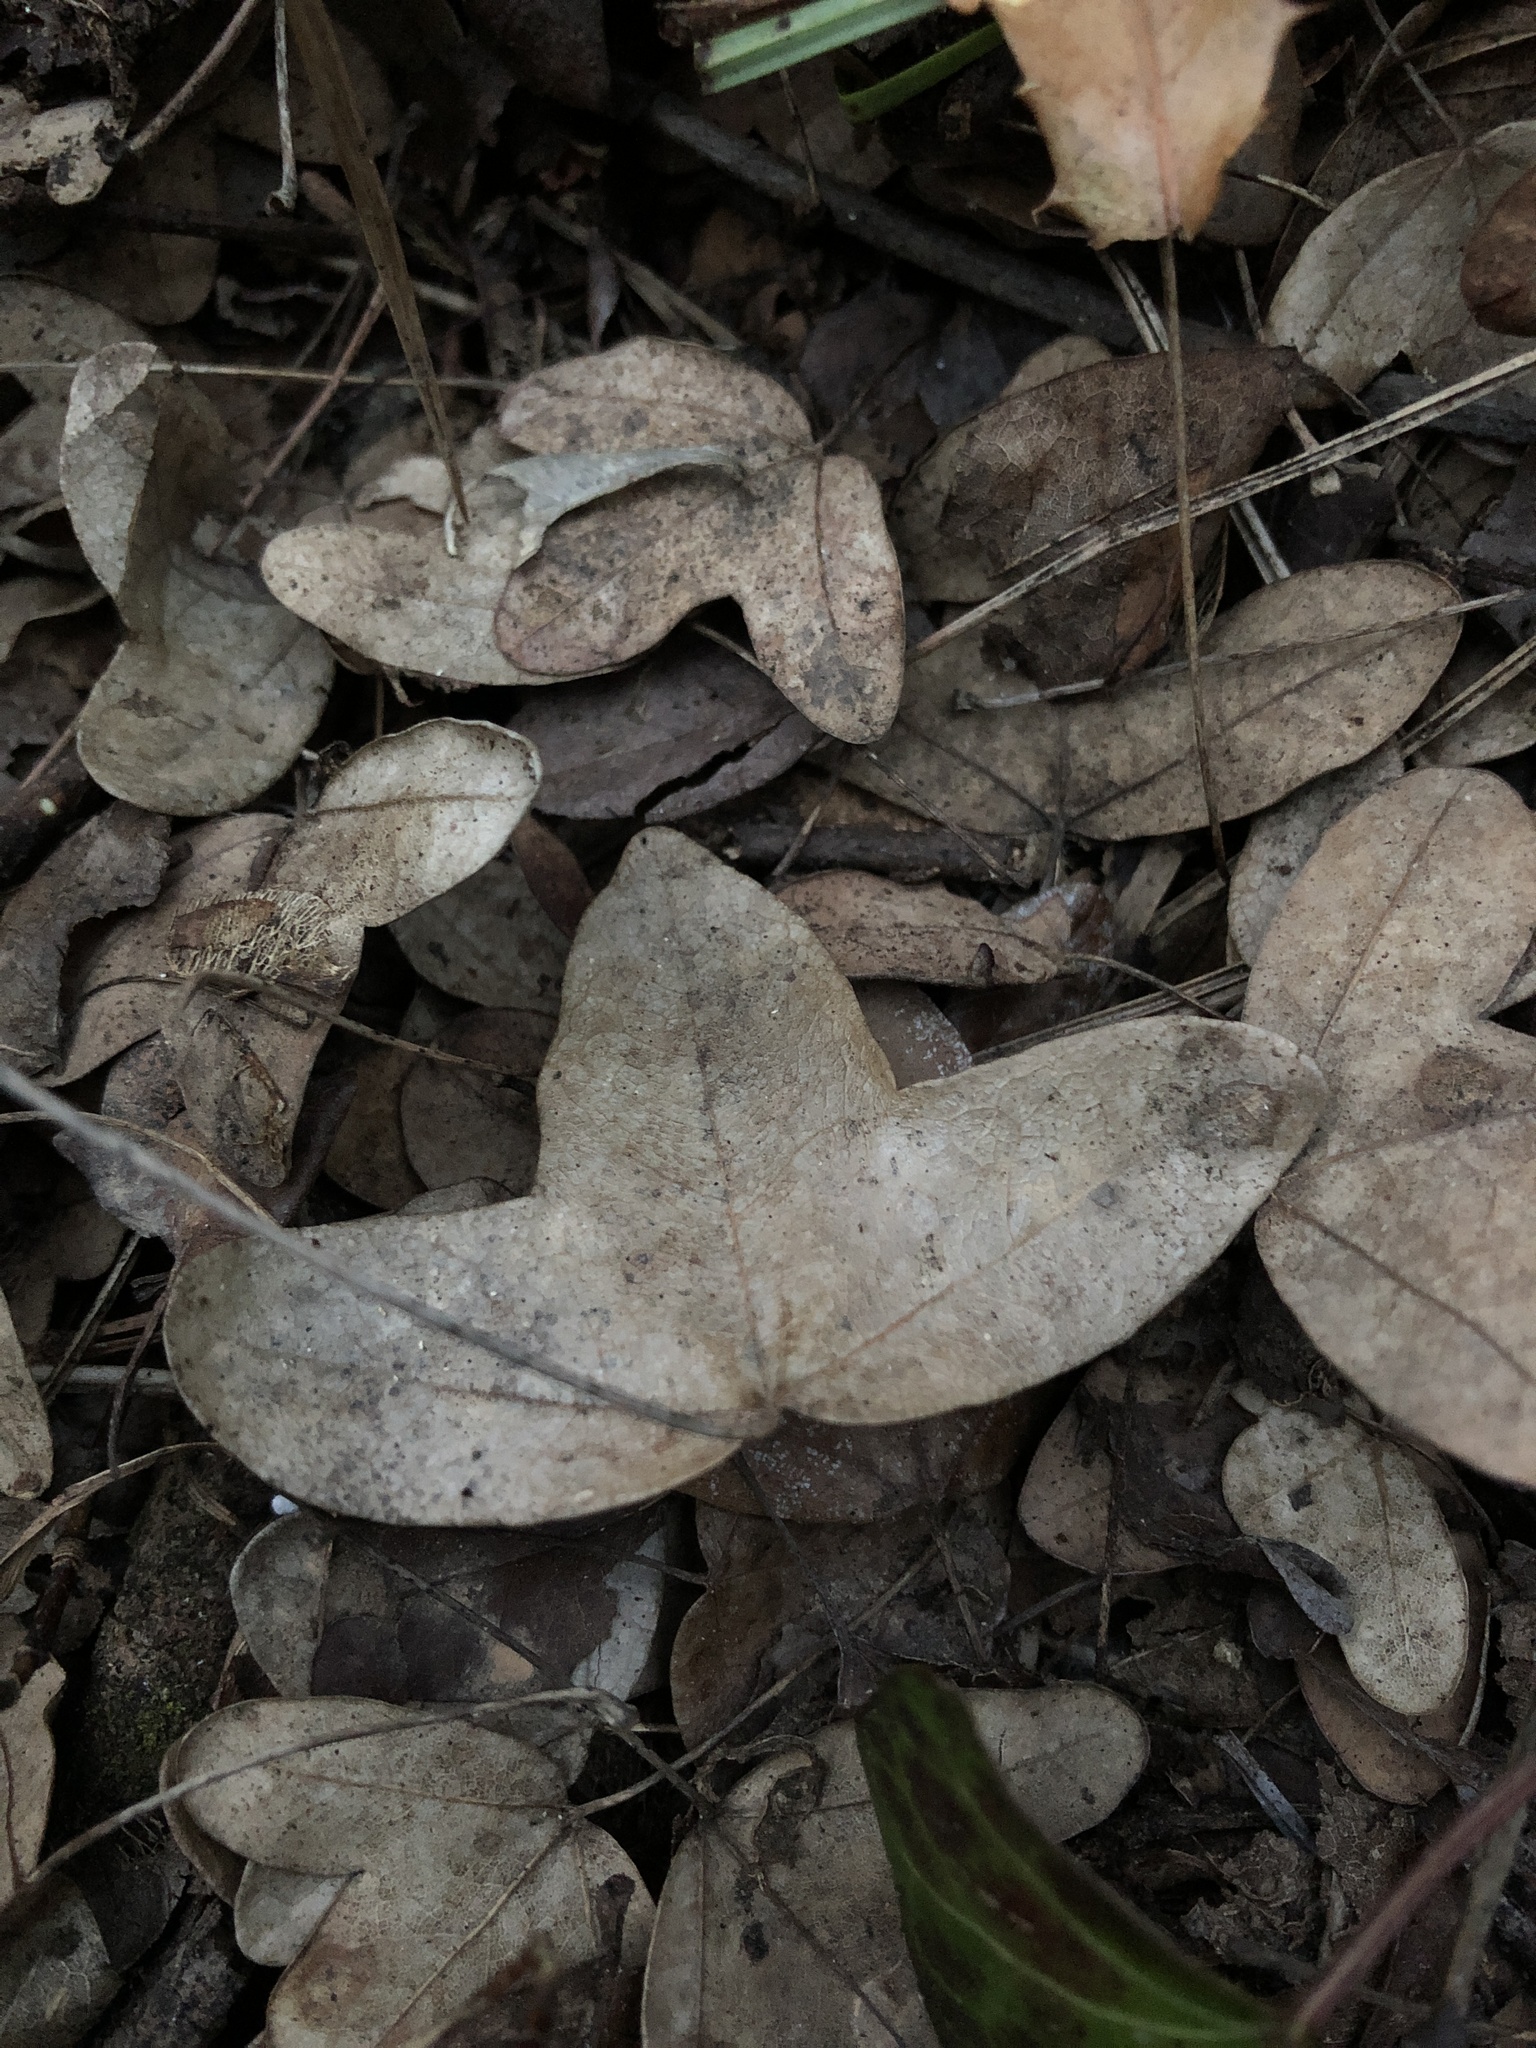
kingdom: Plantae
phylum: Tracheophyta
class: Magnoliopsida
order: Sapindales
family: Sapindaceae
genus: Acer
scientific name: Acer monspessulanum
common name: Montpellier maple
